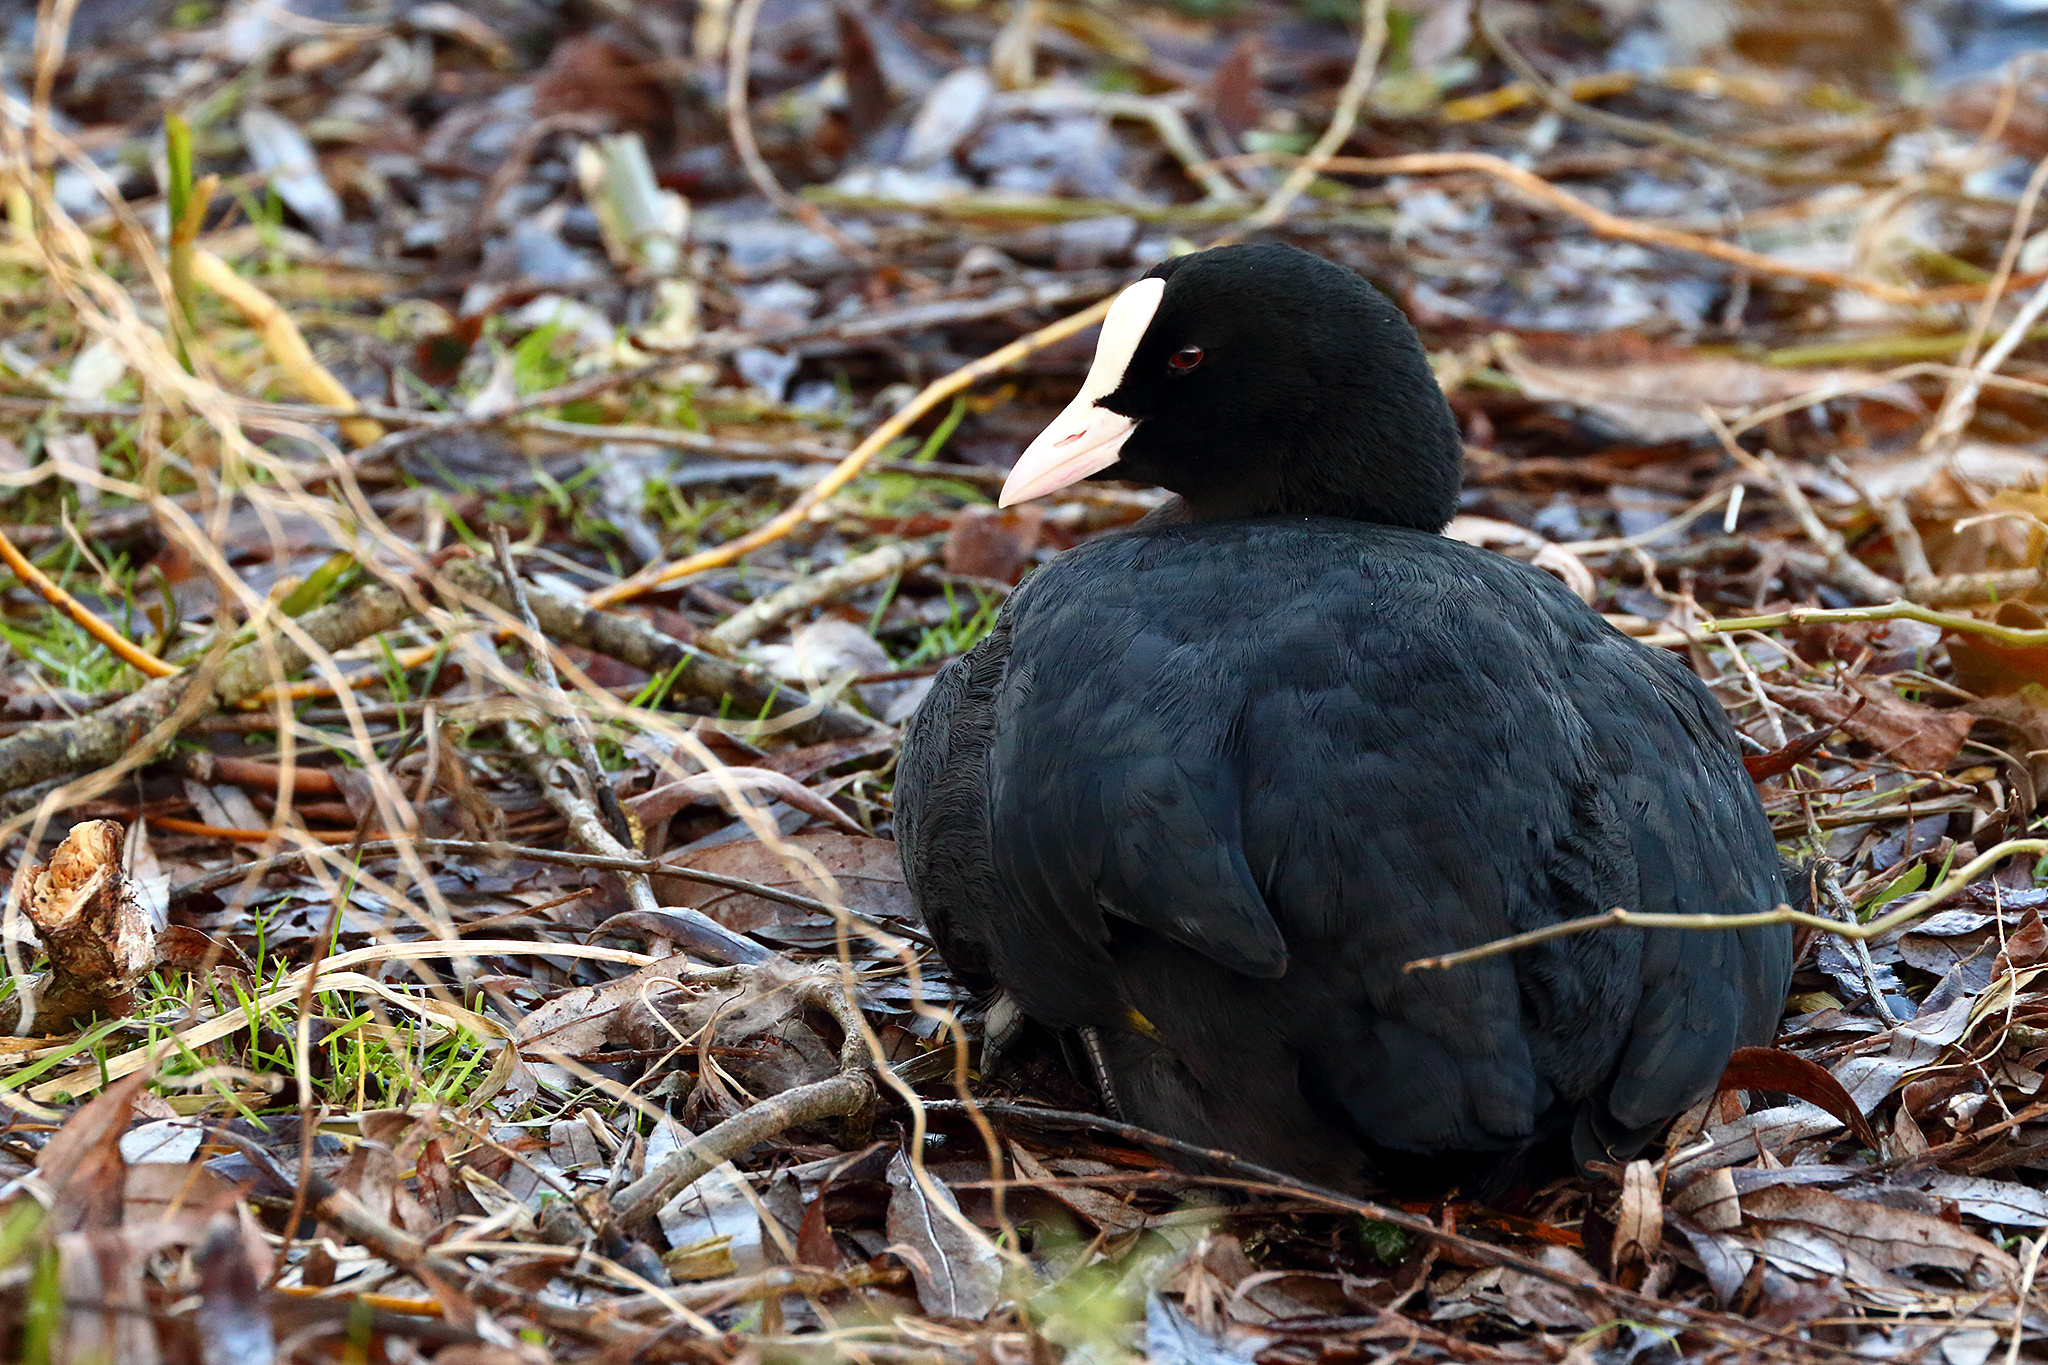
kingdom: Animalia
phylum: Chordata
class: Aves
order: Gruiformes
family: Rallidae
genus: Fulica
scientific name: Fulica atra
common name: Eurasian coot
